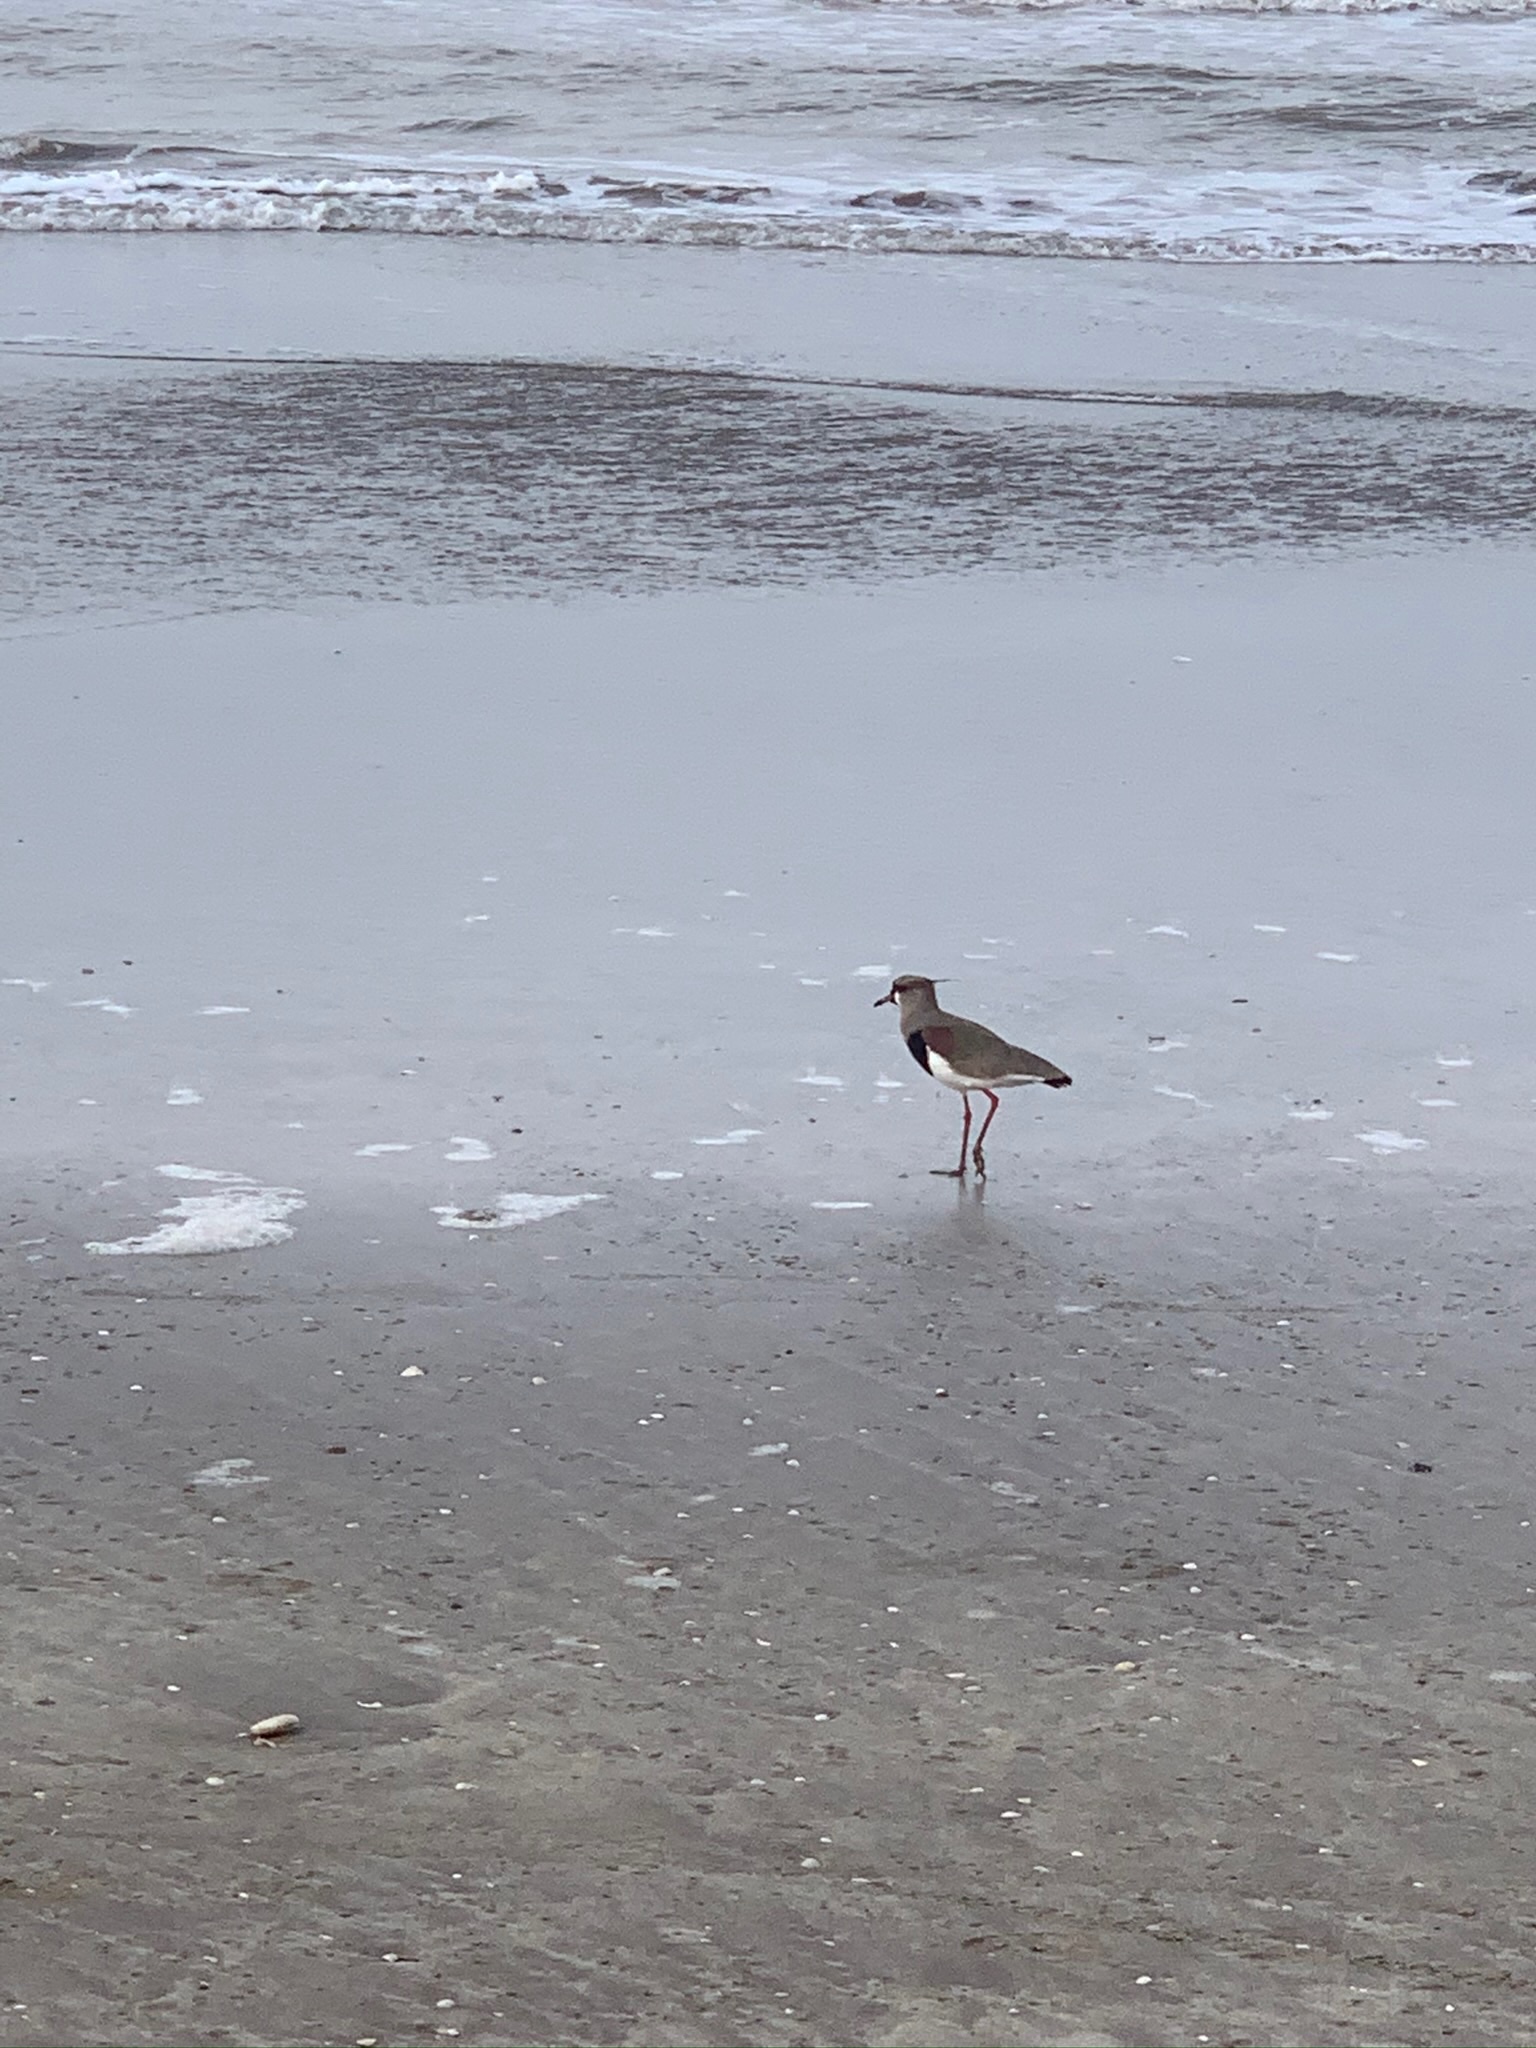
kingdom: Animalia
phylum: Chordata
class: Aves
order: Charadriiformes
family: Charadriidae
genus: Vanellus
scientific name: Vanellus chilensis
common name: Southern lapwing
